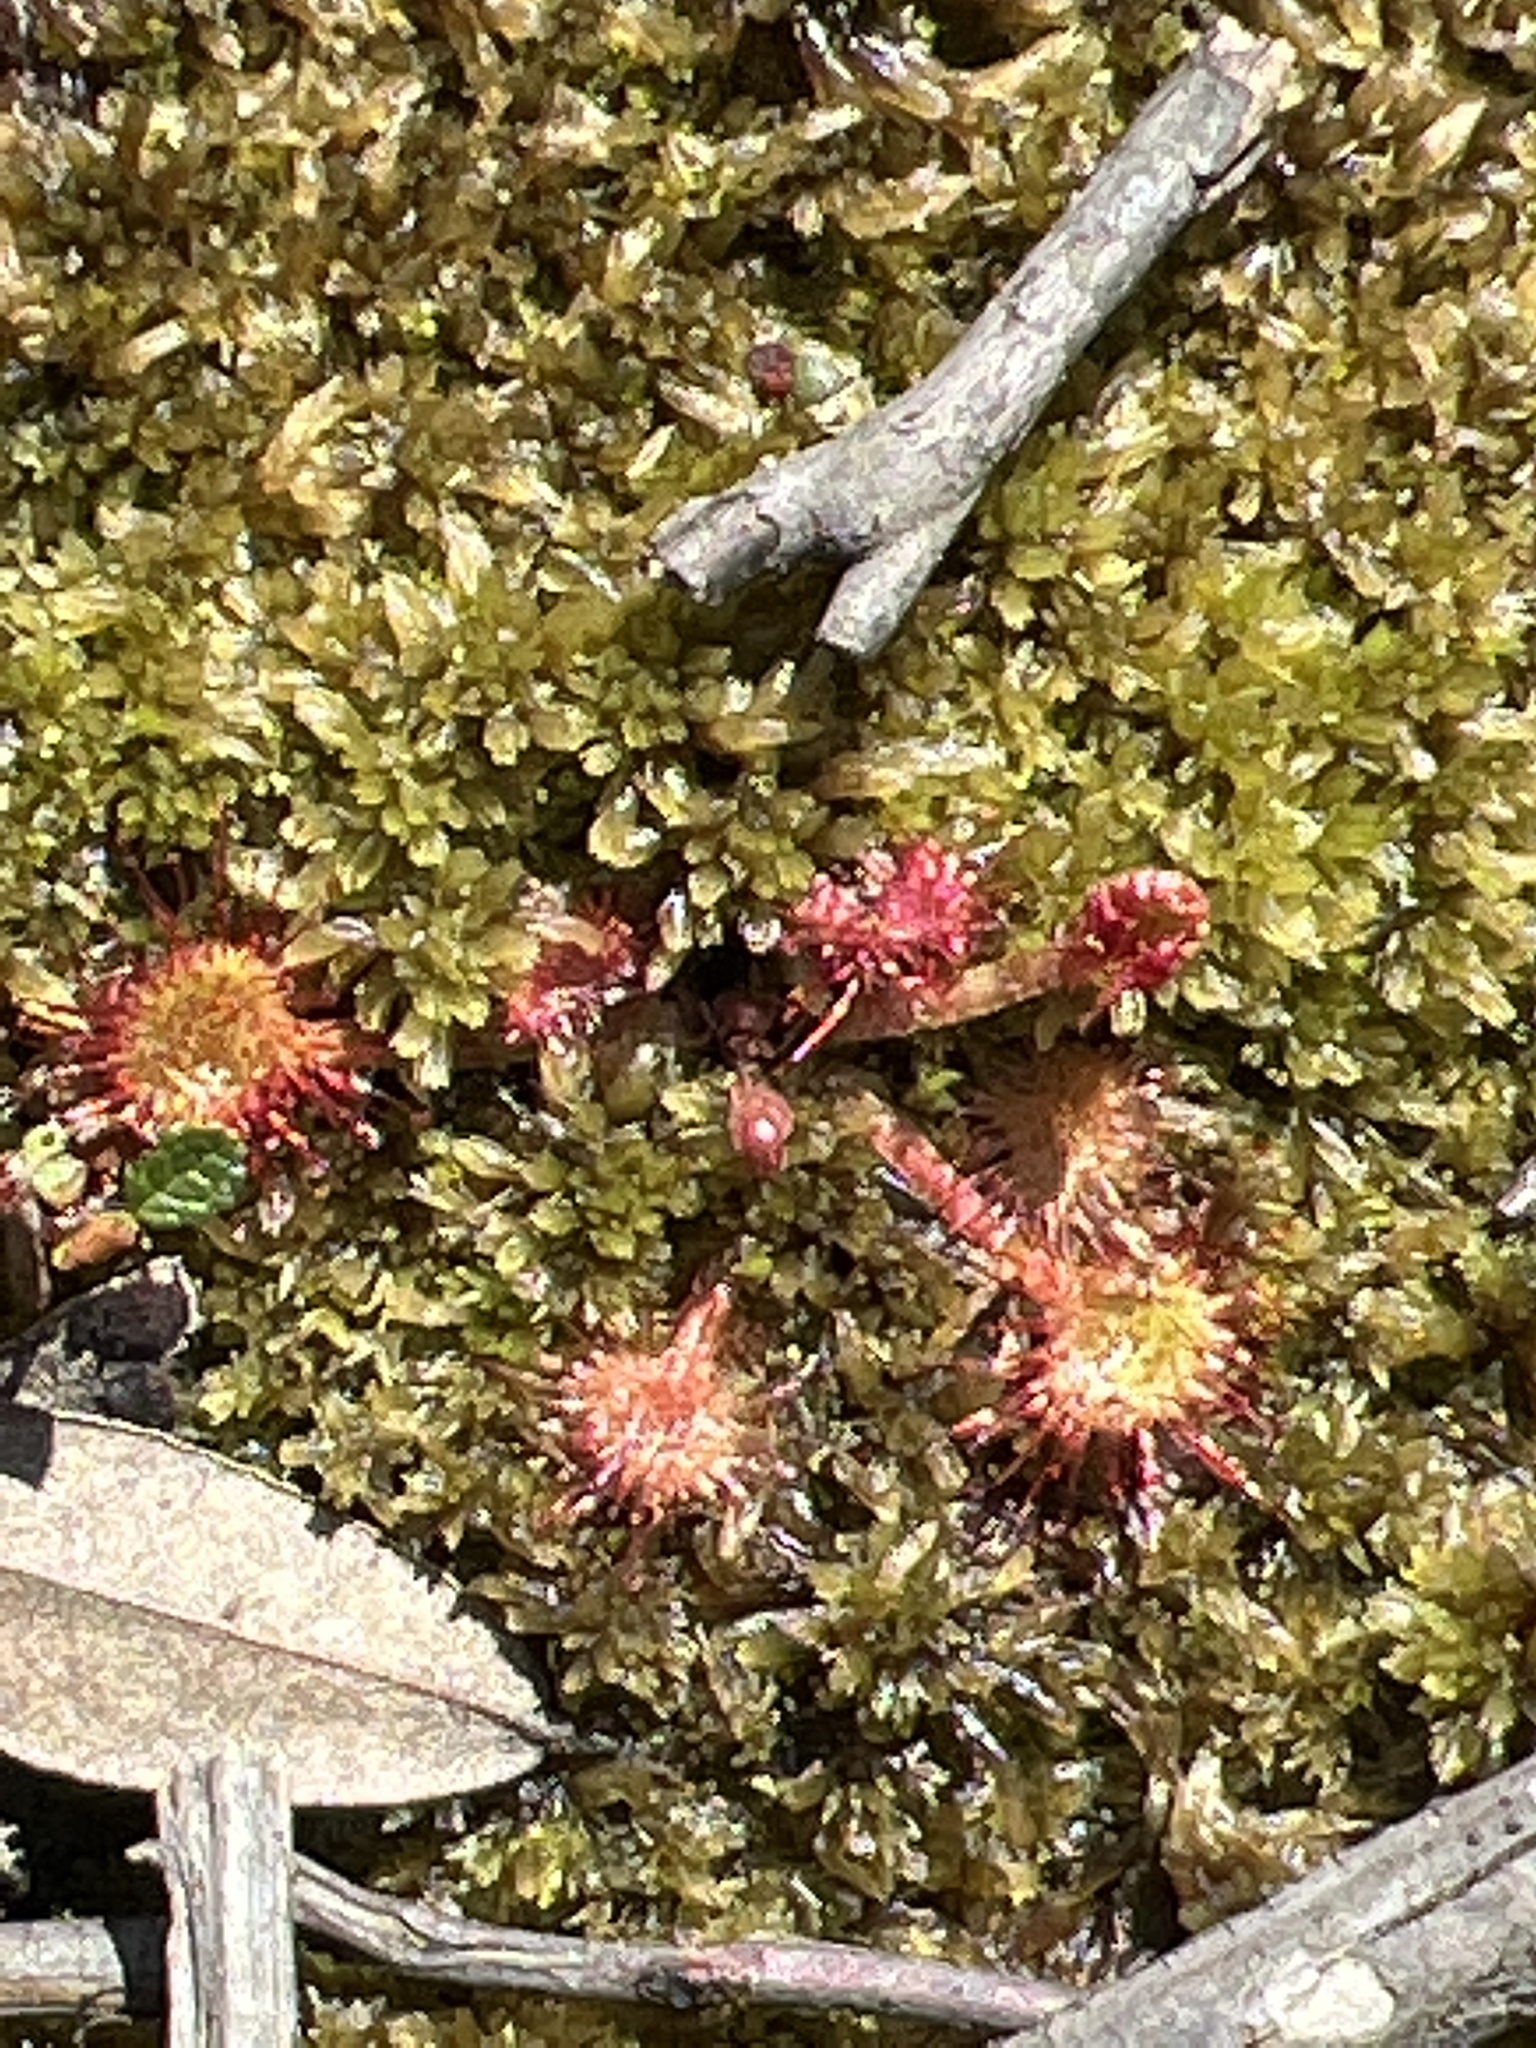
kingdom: Plantae
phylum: Tracheophyta
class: Magnoliopsida
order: Caryophyllales
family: Droseraceae
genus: Drosera
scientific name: Drosera rotundifolia
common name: Round-leaved sundew
